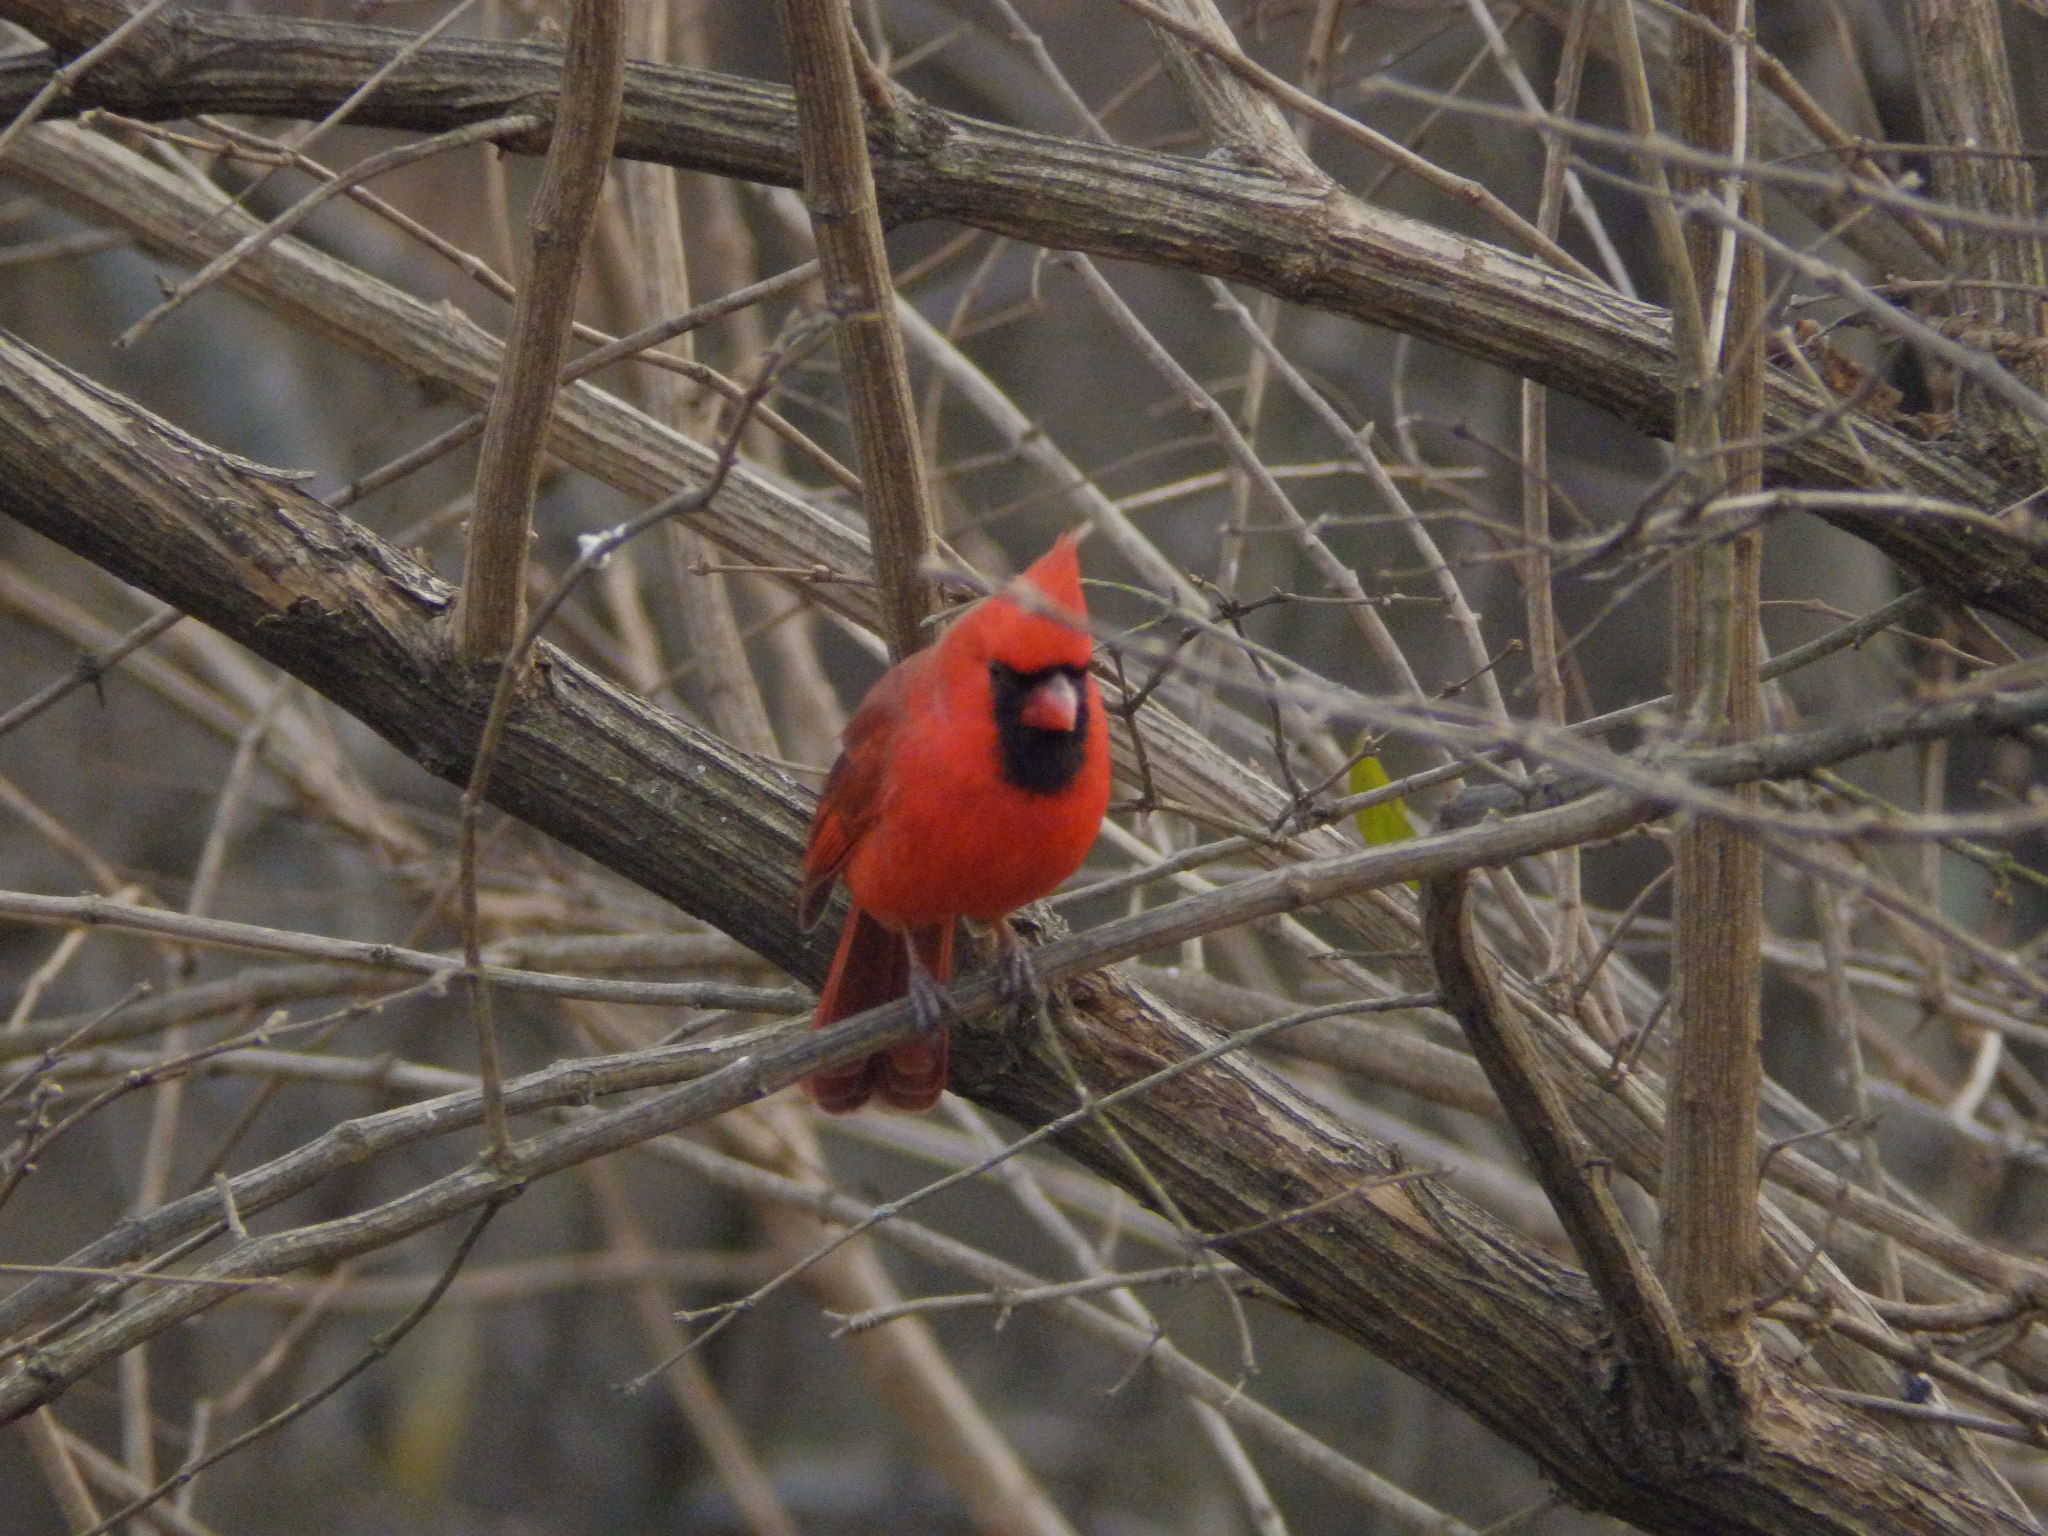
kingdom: Animalia
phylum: Chordata
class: Aves
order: Passeriformes
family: Cardinalidae
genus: Cardinalis
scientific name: Cardinalis cardinalis
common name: Northern cardinal
